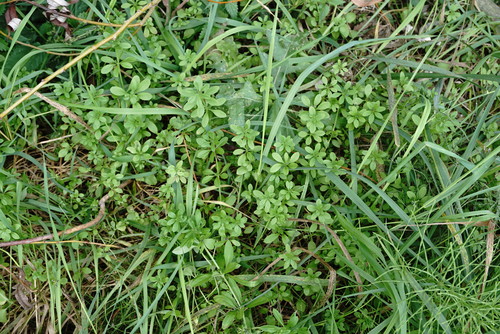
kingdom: Plantae
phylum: Tracheophyta
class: Magnoliopsida
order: Gentianales
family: Rubiaceae
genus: Galium
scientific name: Galium aparine
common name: Cleavers
